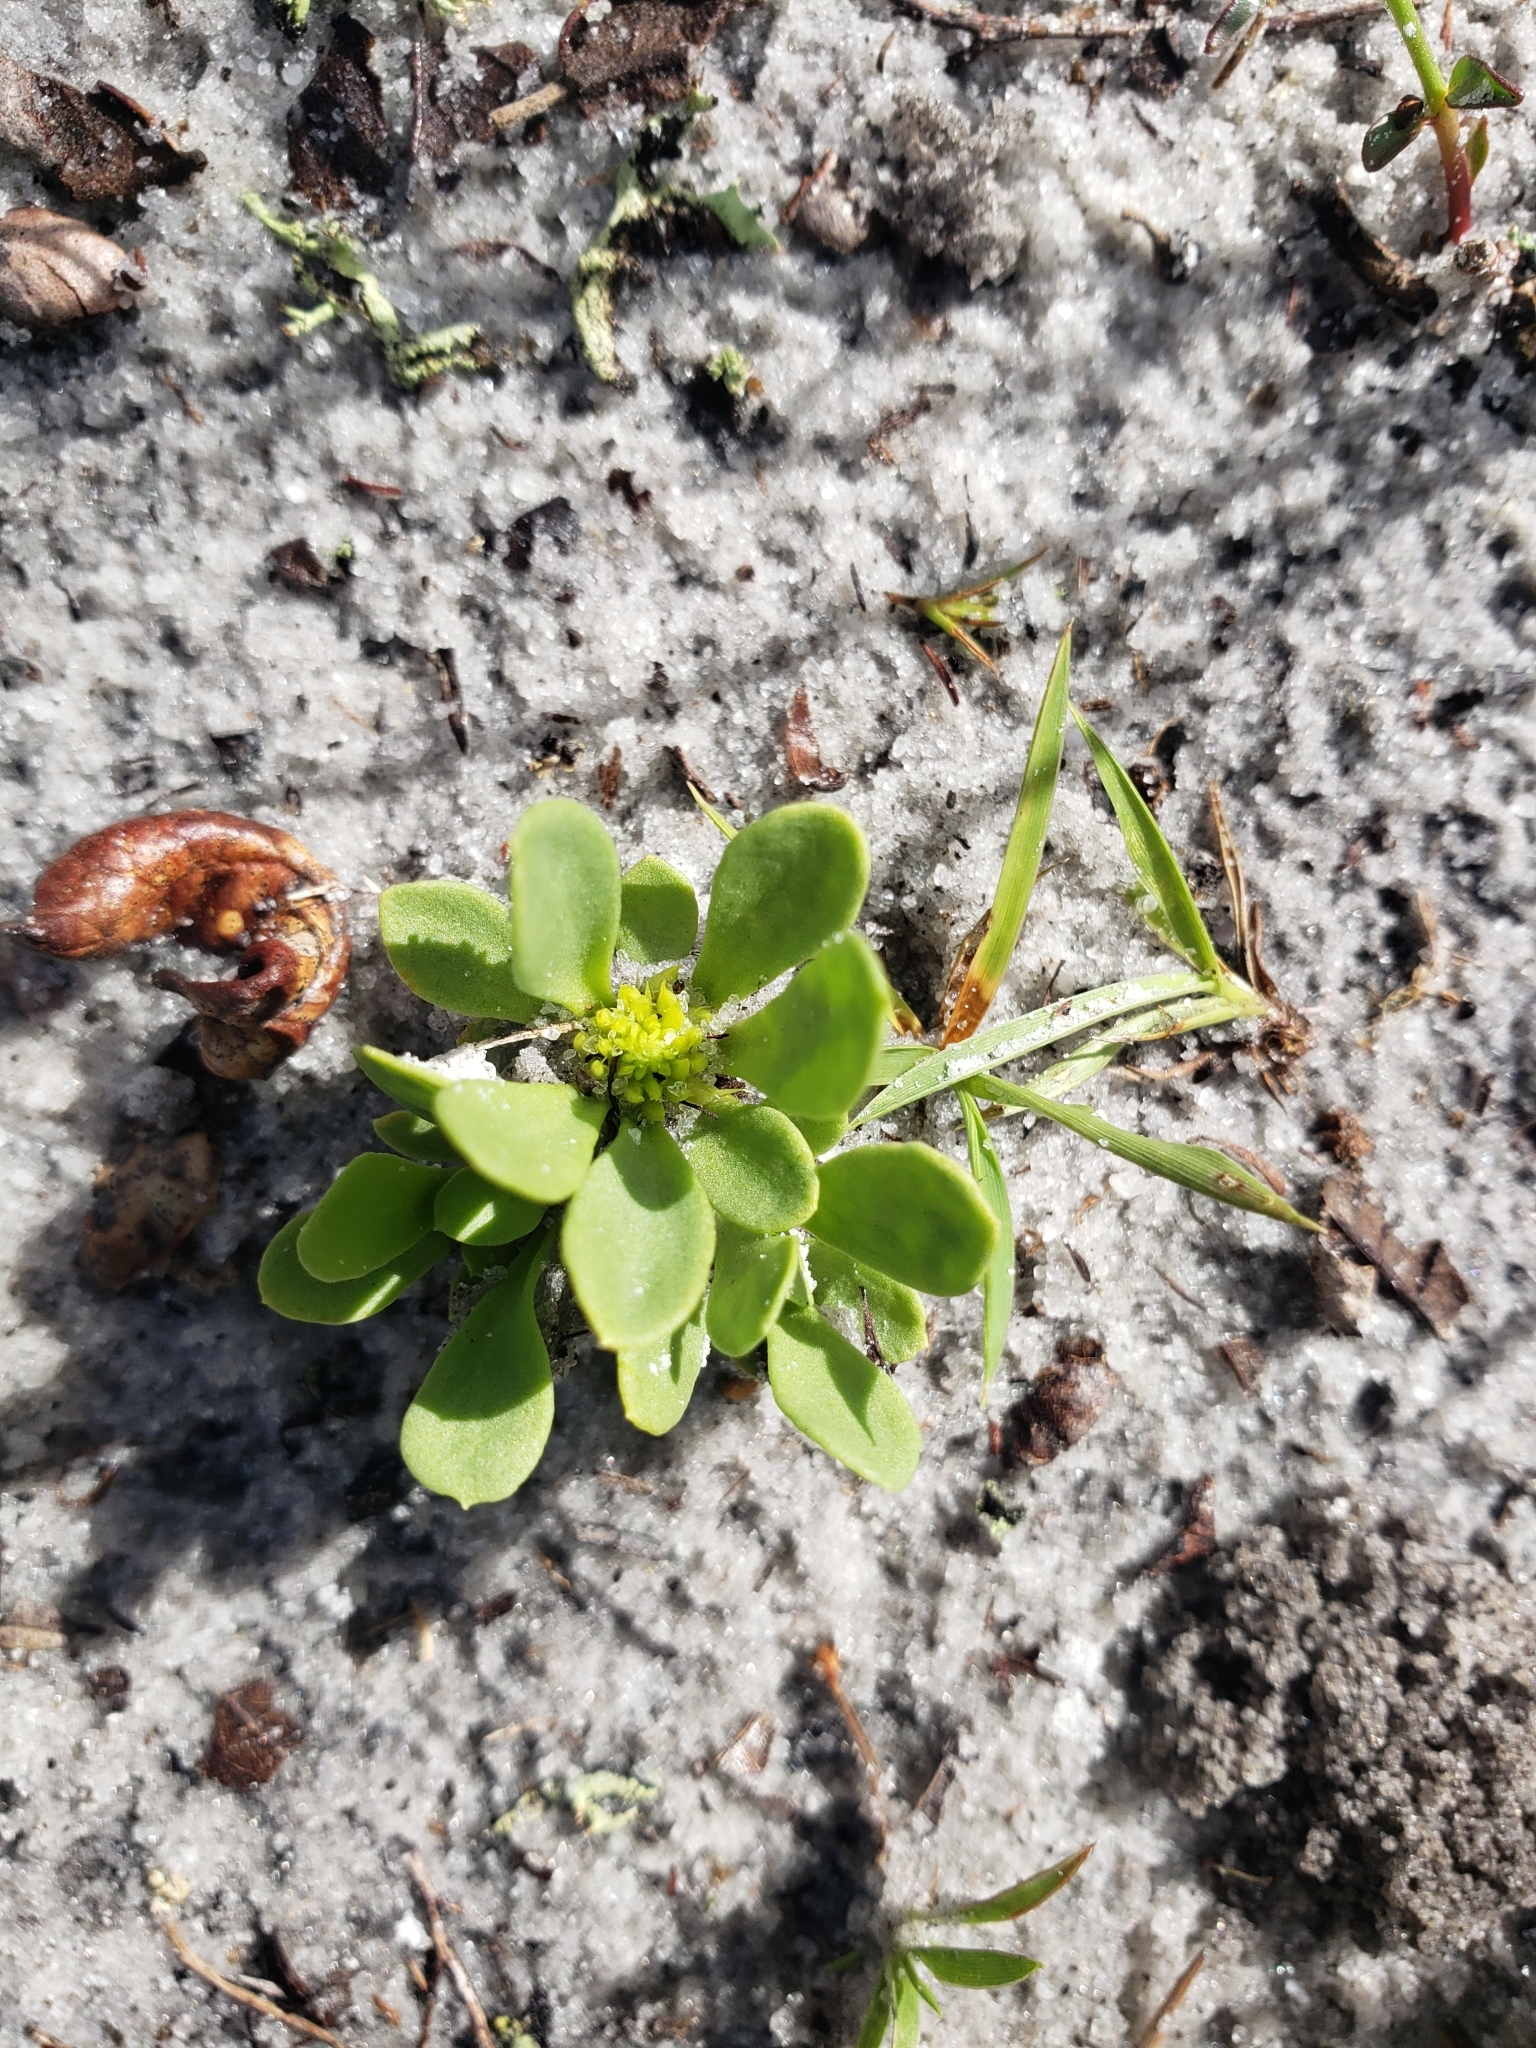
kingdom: Plantae
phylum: Tracheophyta
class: Magnoliopsida
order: Fabales
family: Polygalaceae
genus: Polygala
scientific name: Polygala nana
